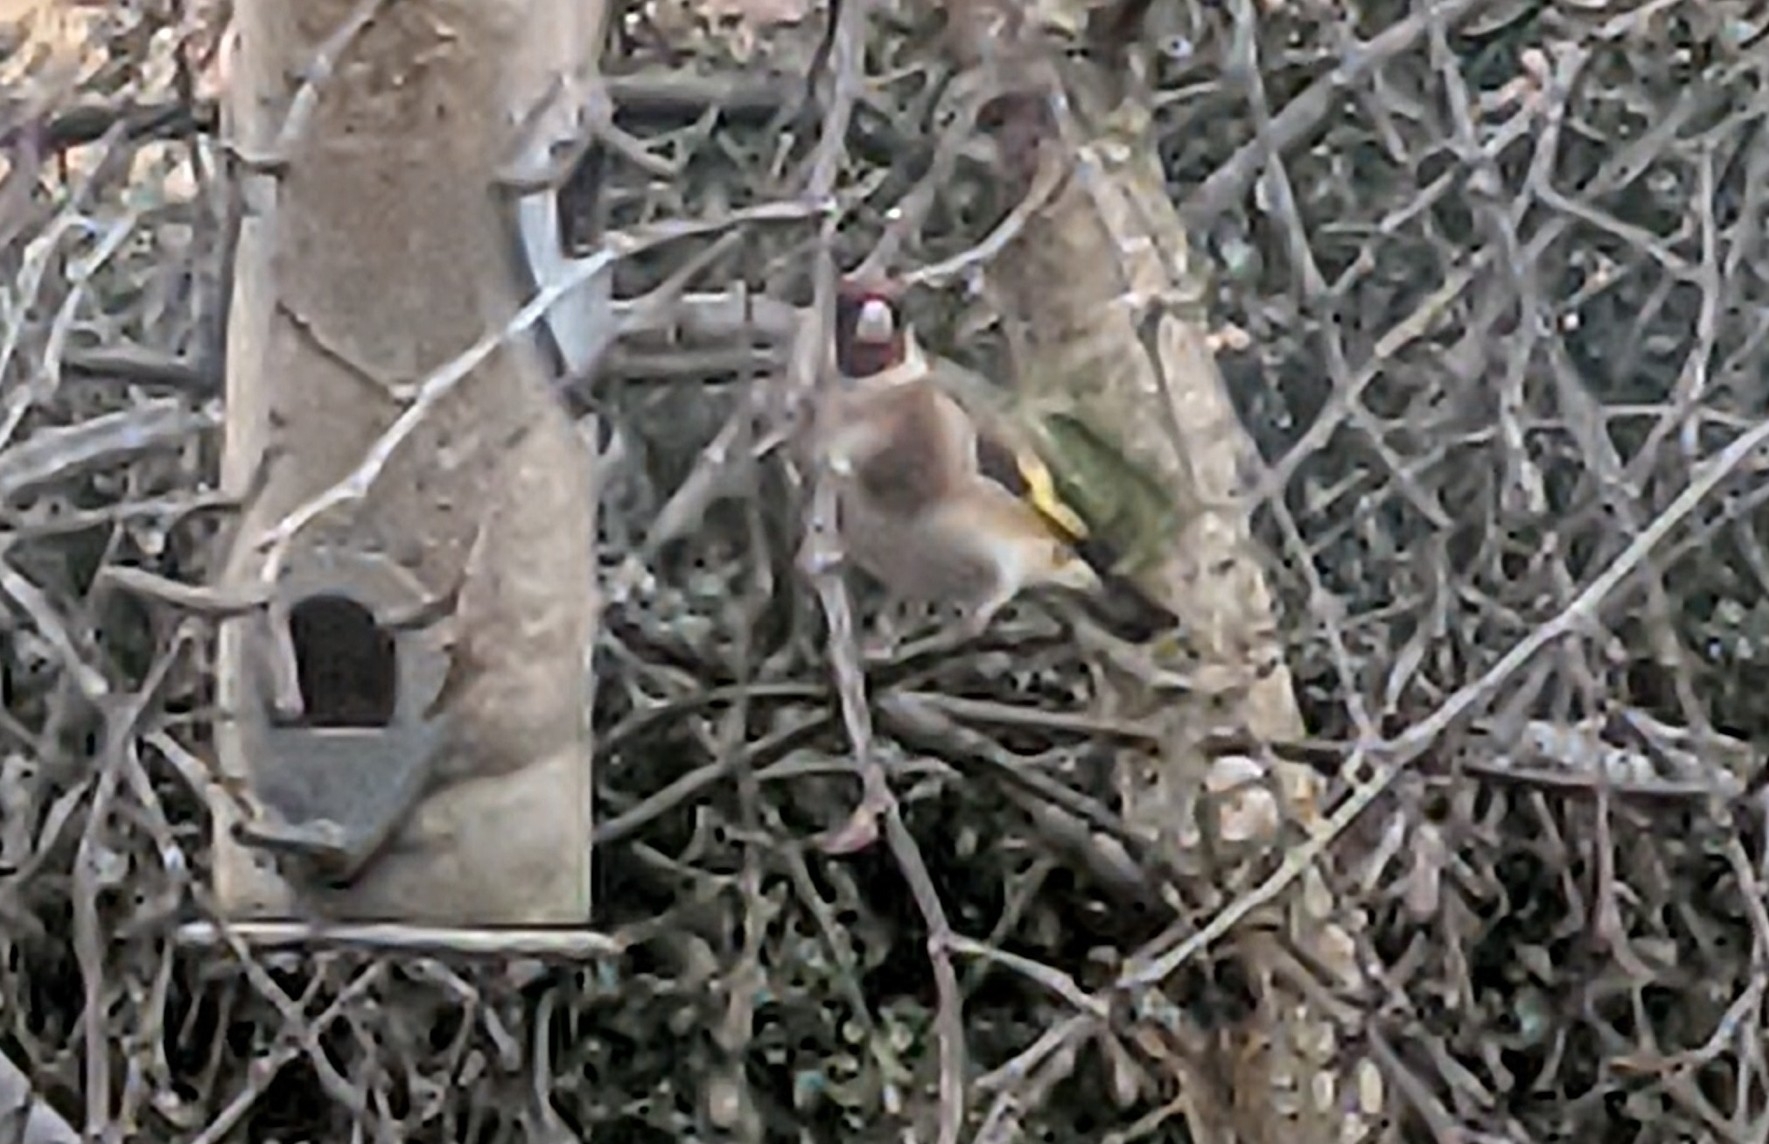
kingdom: Animalia
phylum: Chordata
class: Aves
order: Passeriformes
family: Fringillidae
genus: Carduelis
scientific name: Carduelis carduelis
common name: European goldfinch
